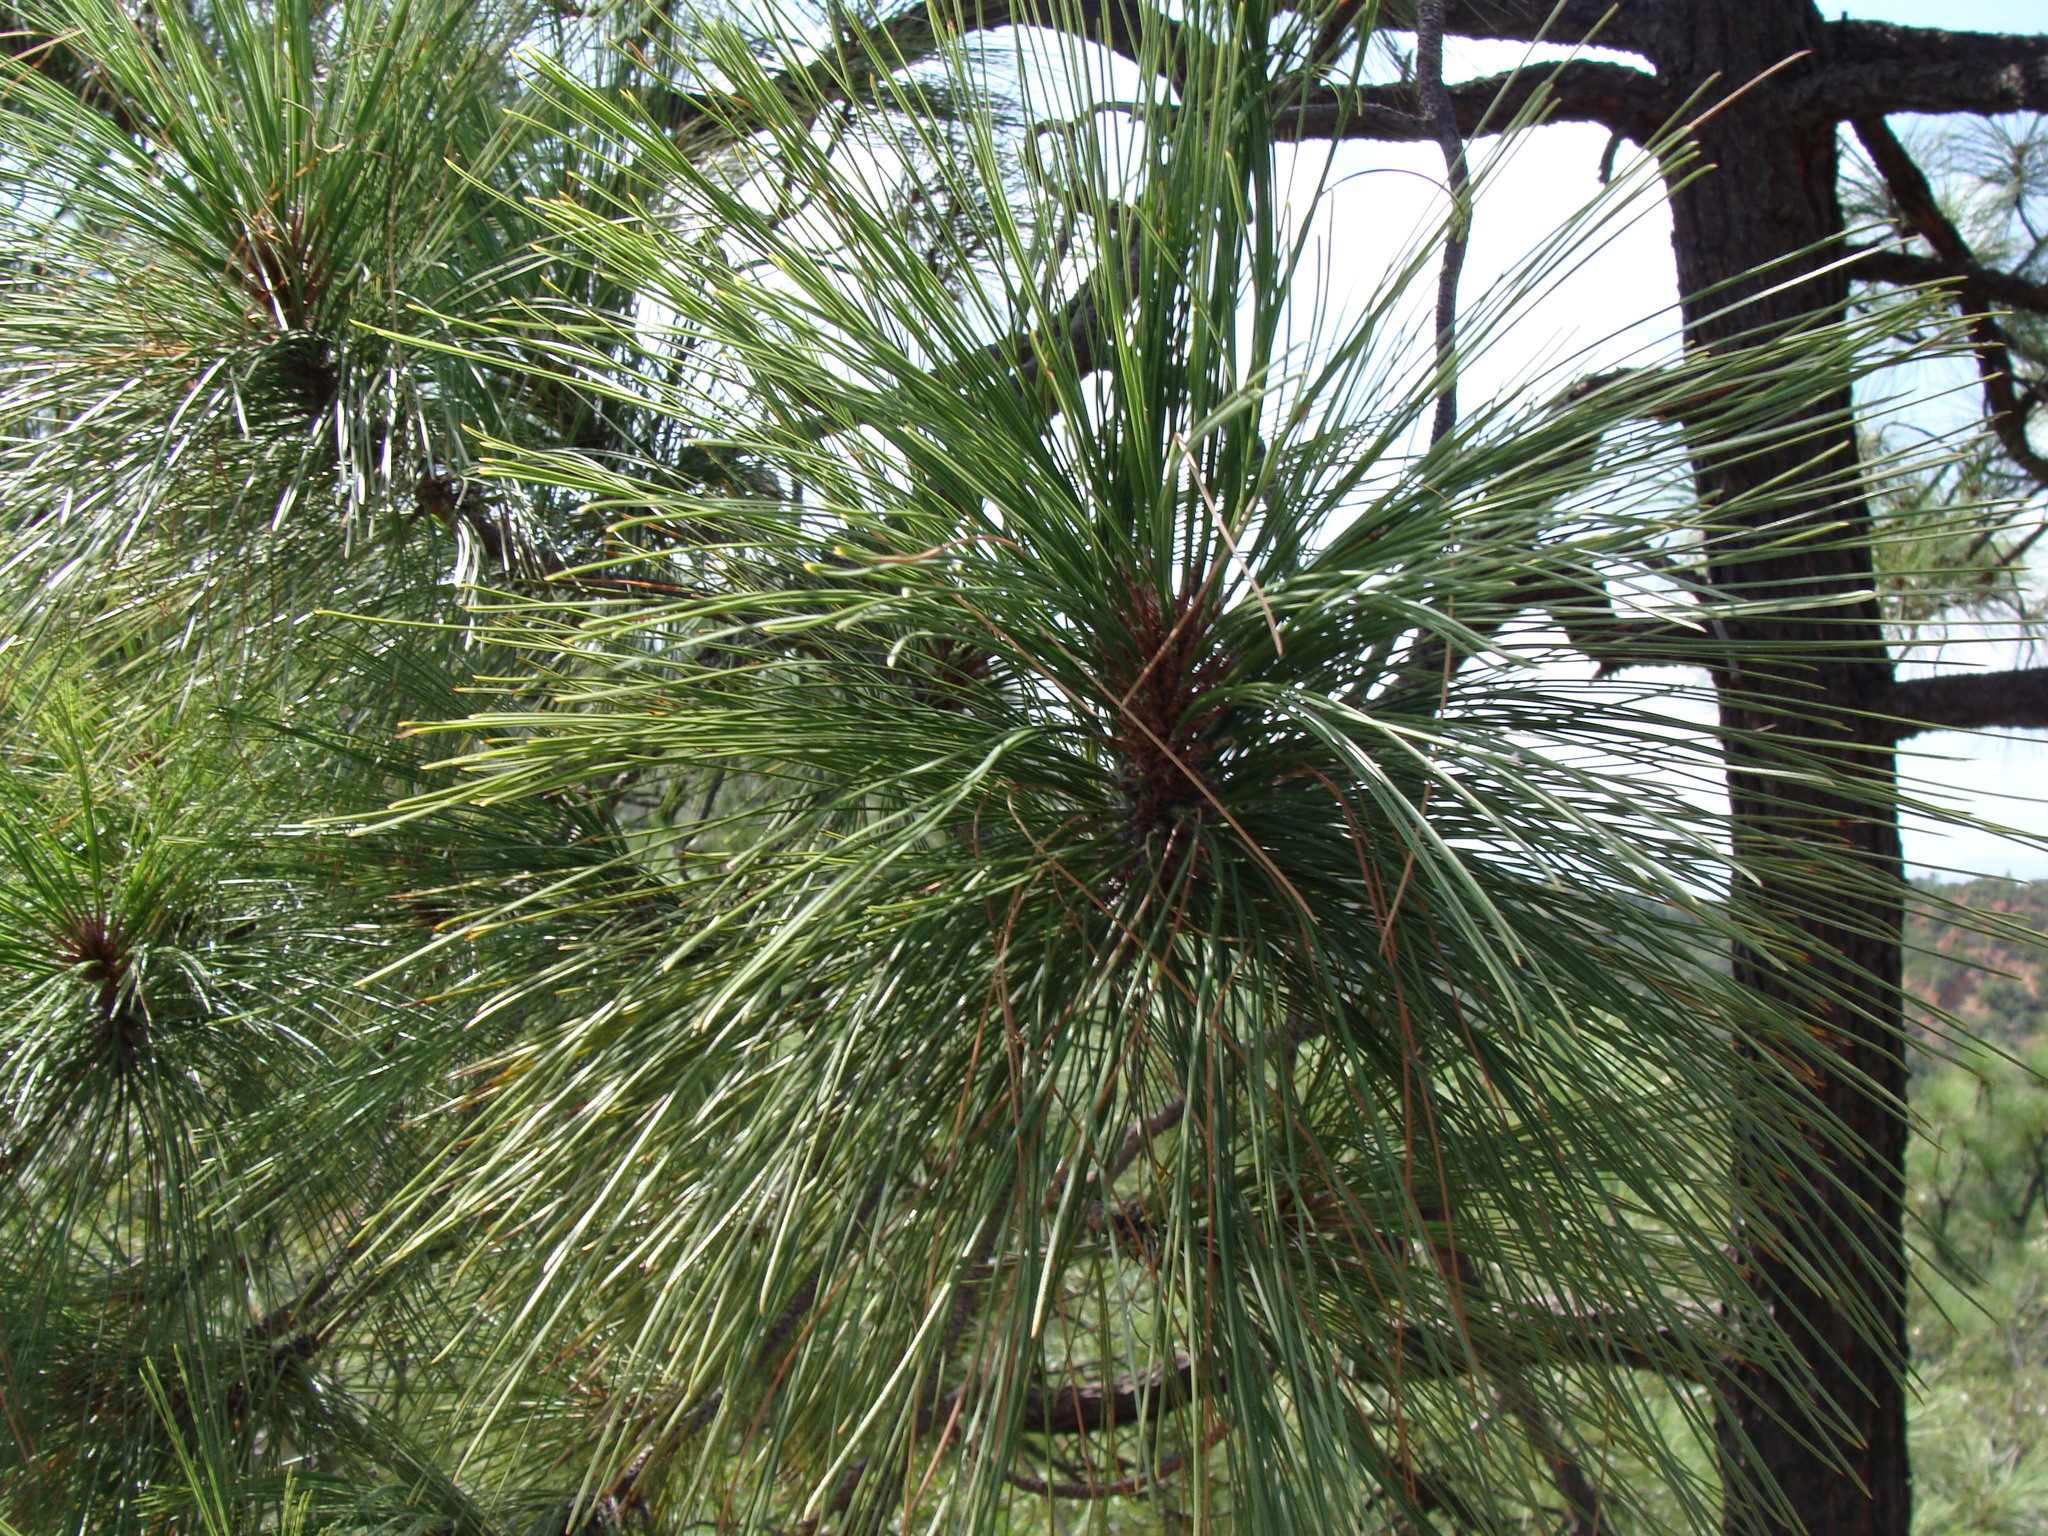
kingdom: Plantae
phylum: Tracheophyta
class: Pinopsida
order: Pinales
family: Pinaceae
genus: Pinus
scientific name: Pinus engelmannii
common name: Apache pine
